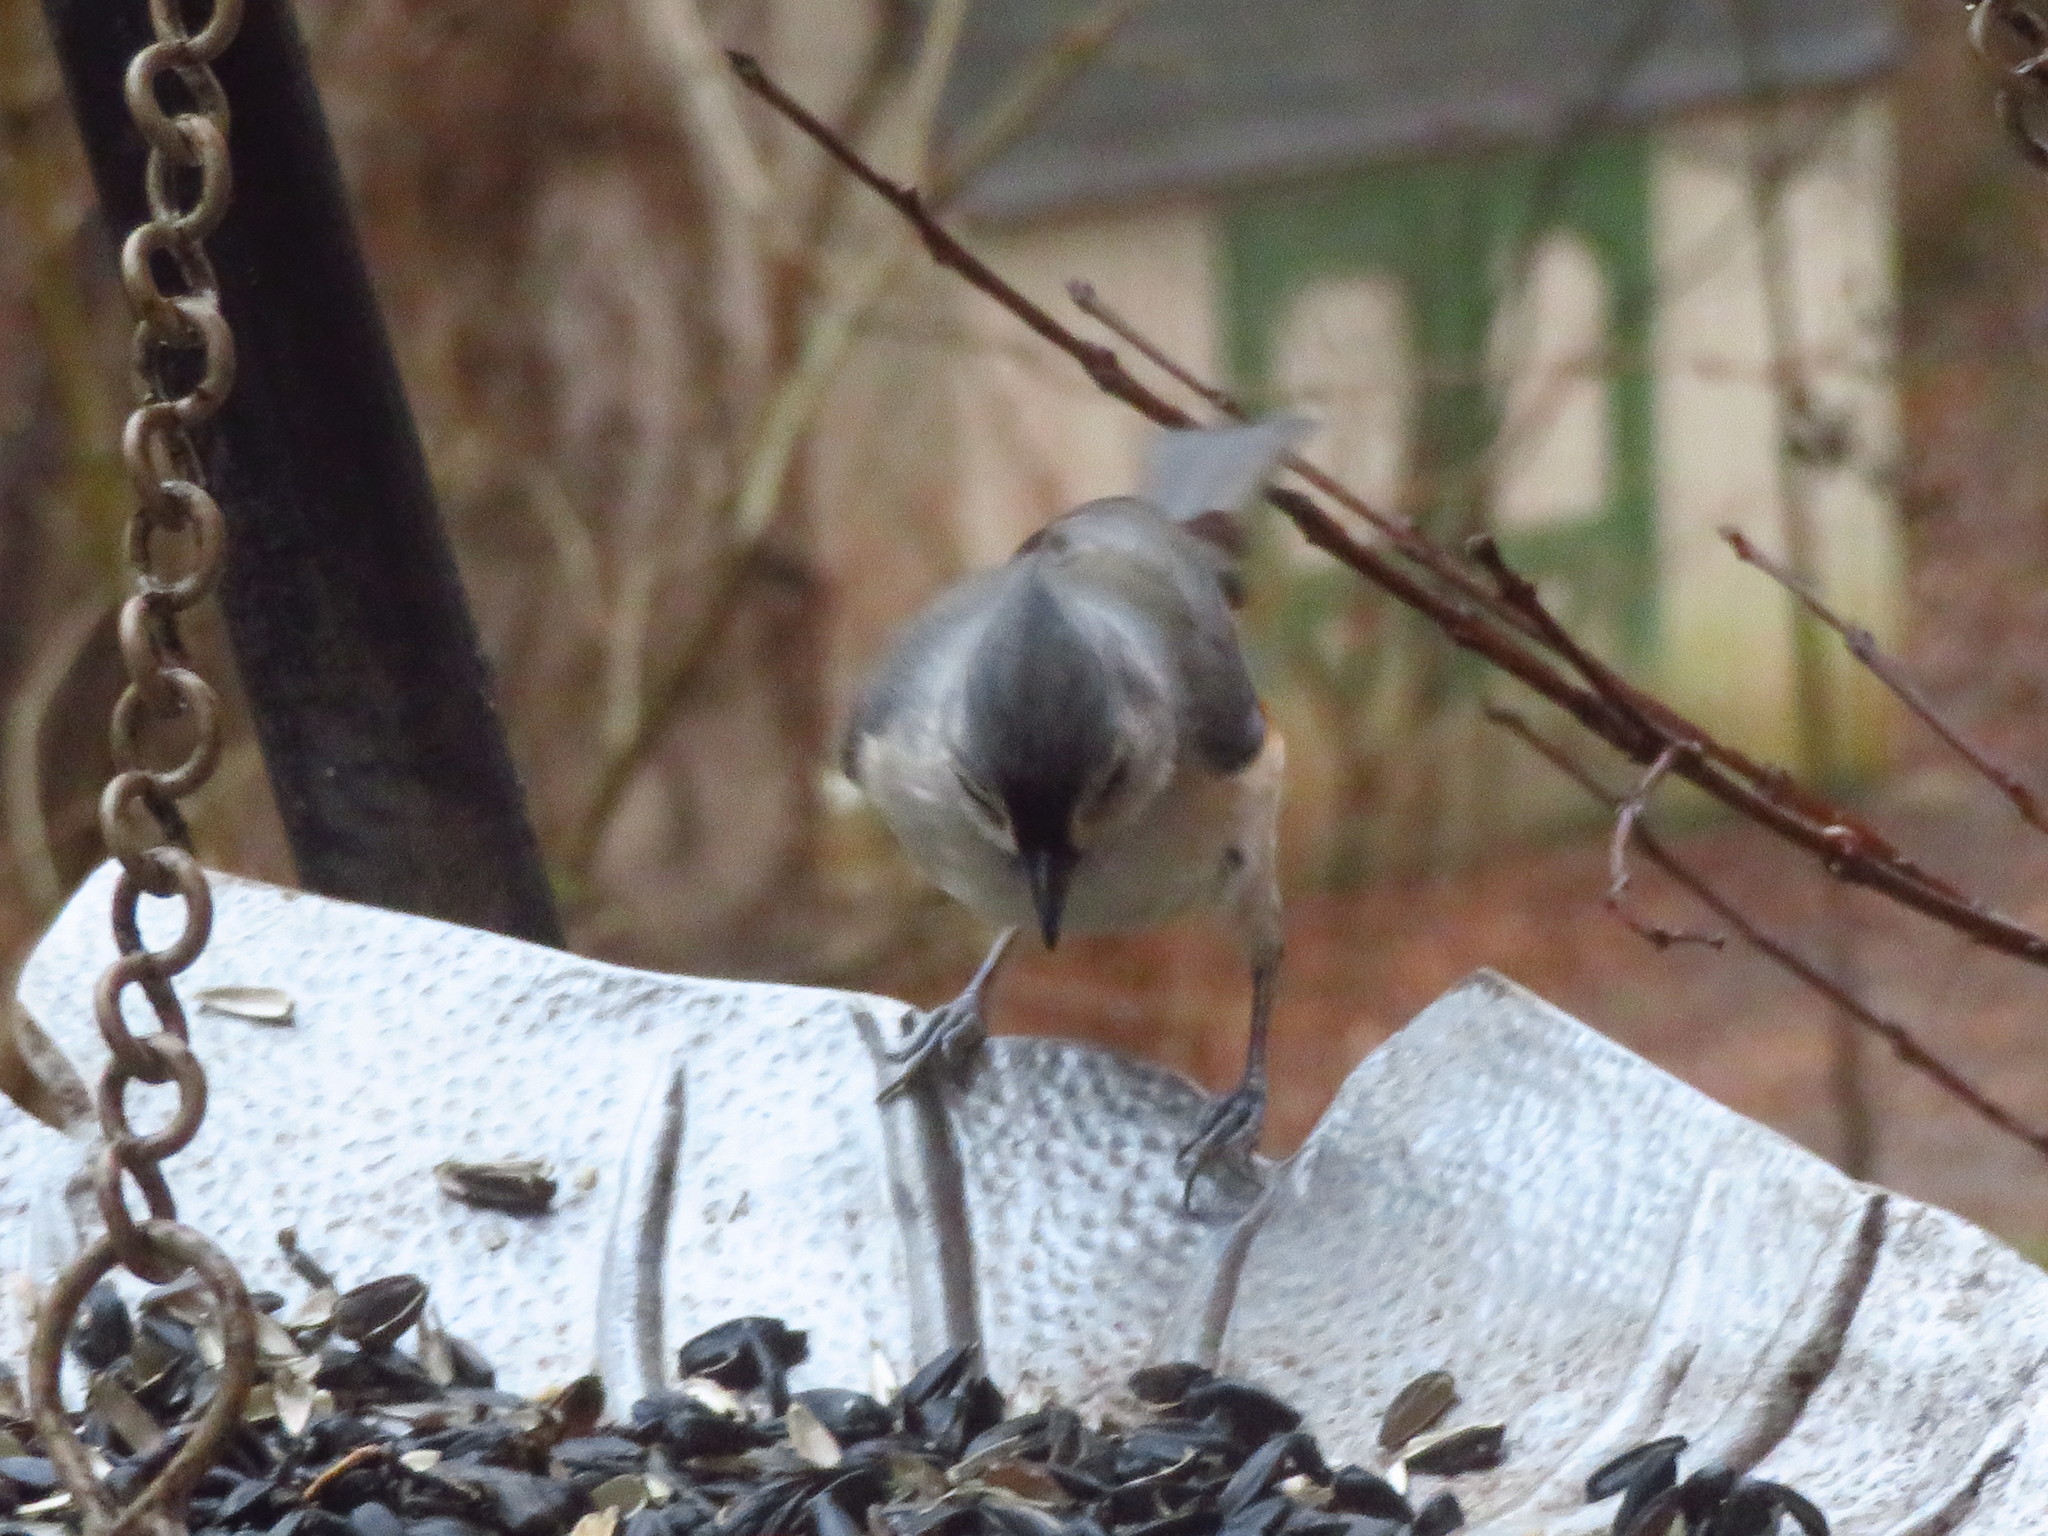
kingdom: Animalia
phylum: Chordata
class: Aves
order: Passeriformes
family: Paridae
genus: Baeolophus
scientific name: Baeolophus bicolor
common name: Tufted titmouse
